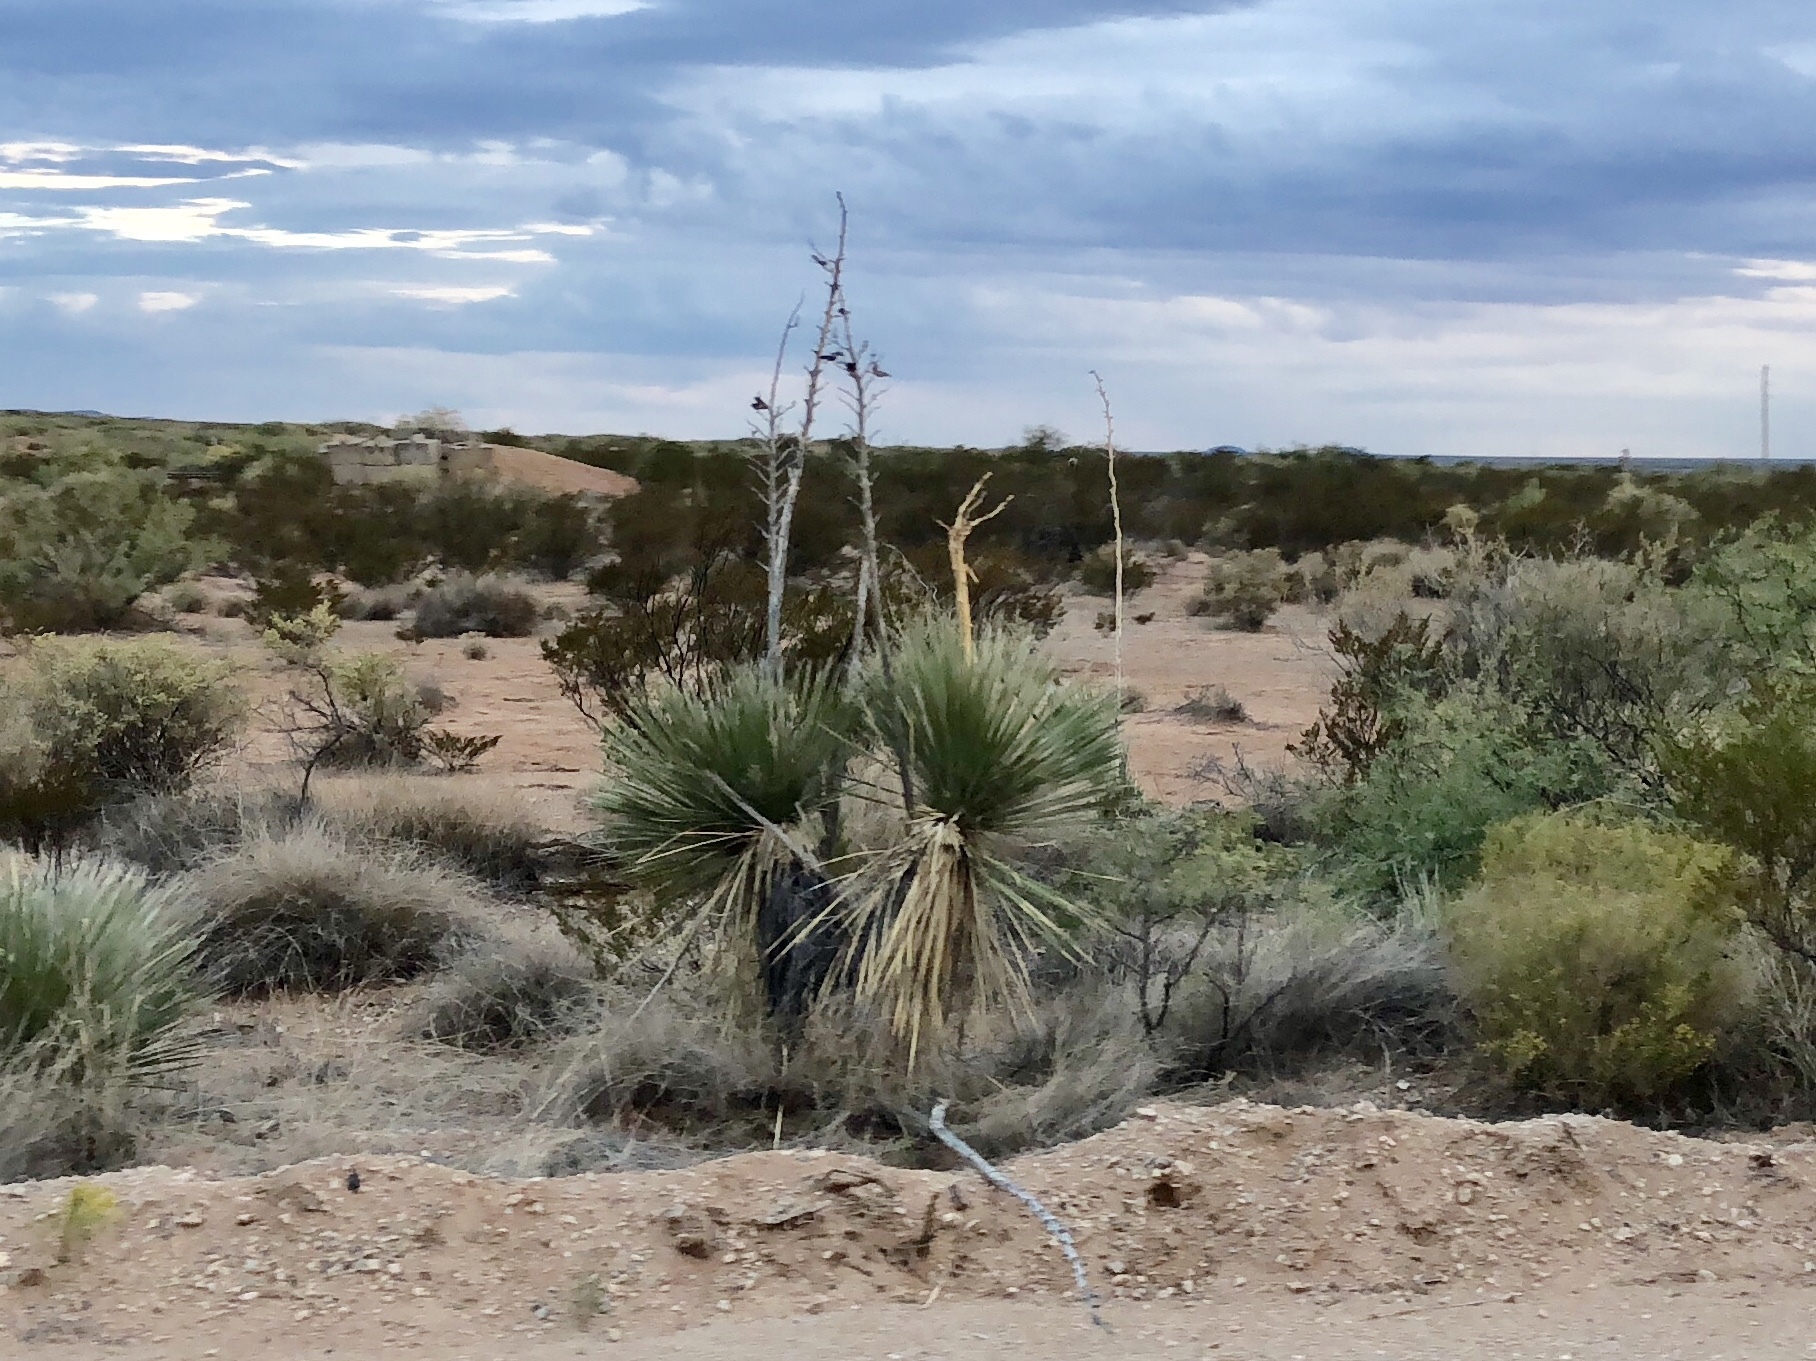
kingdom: Plantae
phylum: Tracheophyta
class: Liliopsida
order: Asparagales
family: Asparagaceae
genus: Yucca
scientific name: Yucca elata
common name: Palmella
